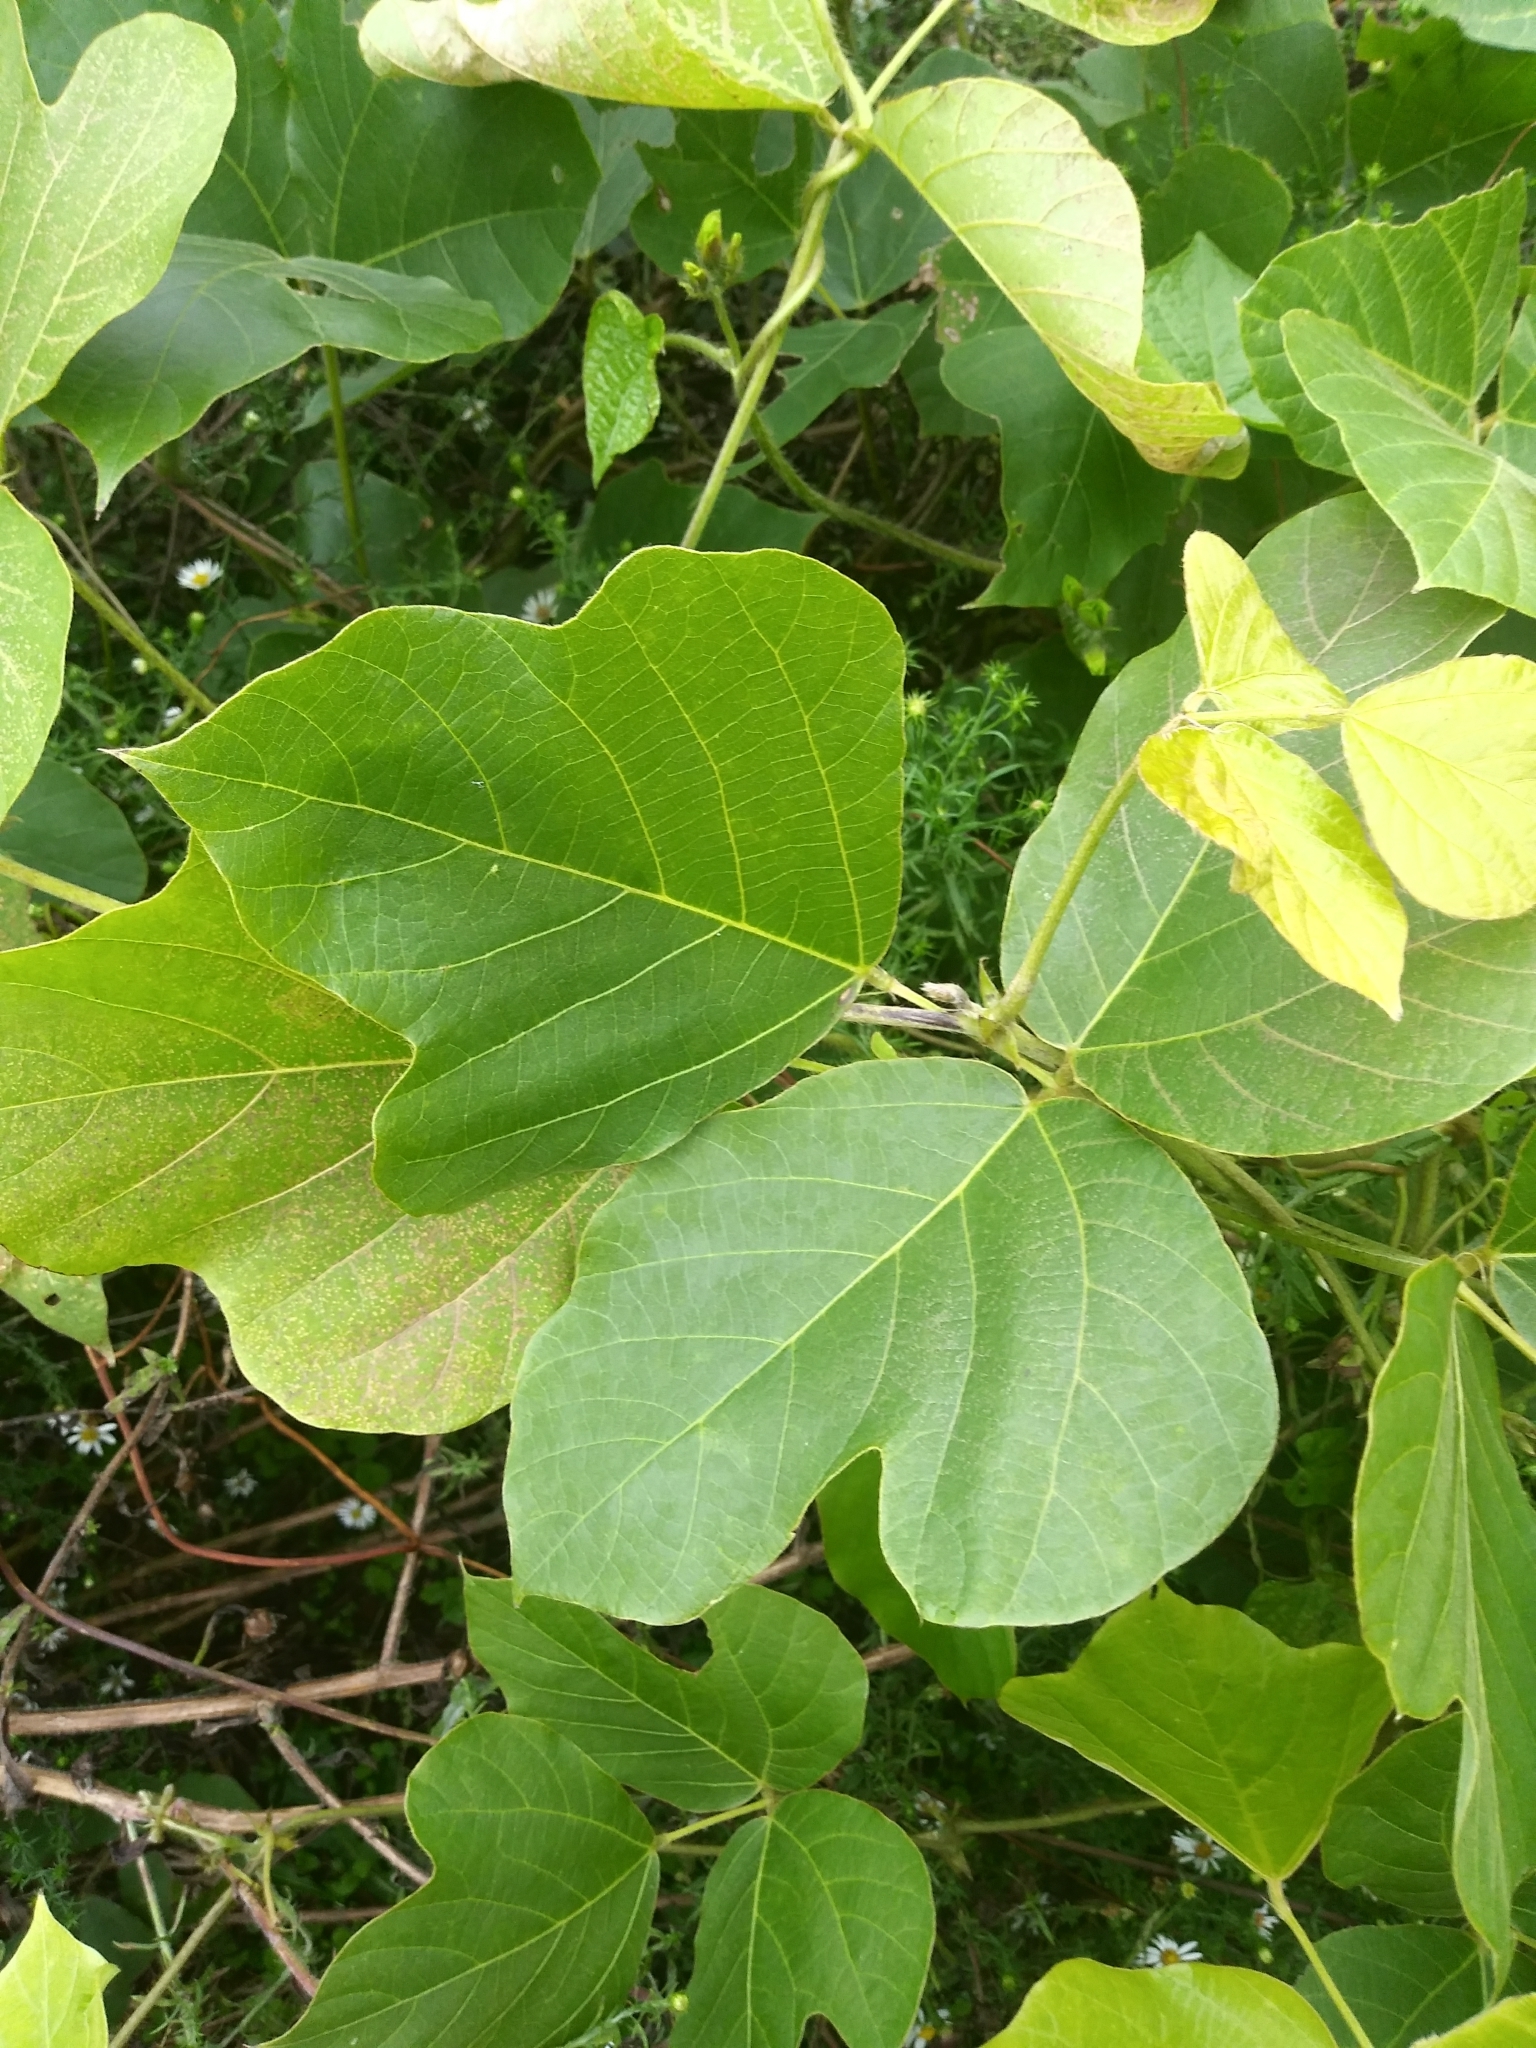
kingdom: Plantae
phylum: Tracheophyta
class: Magnoliopsida
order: Fabales
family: Fabaceae
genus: Pueraria
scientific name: Pueraria montana
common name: Kudzu
